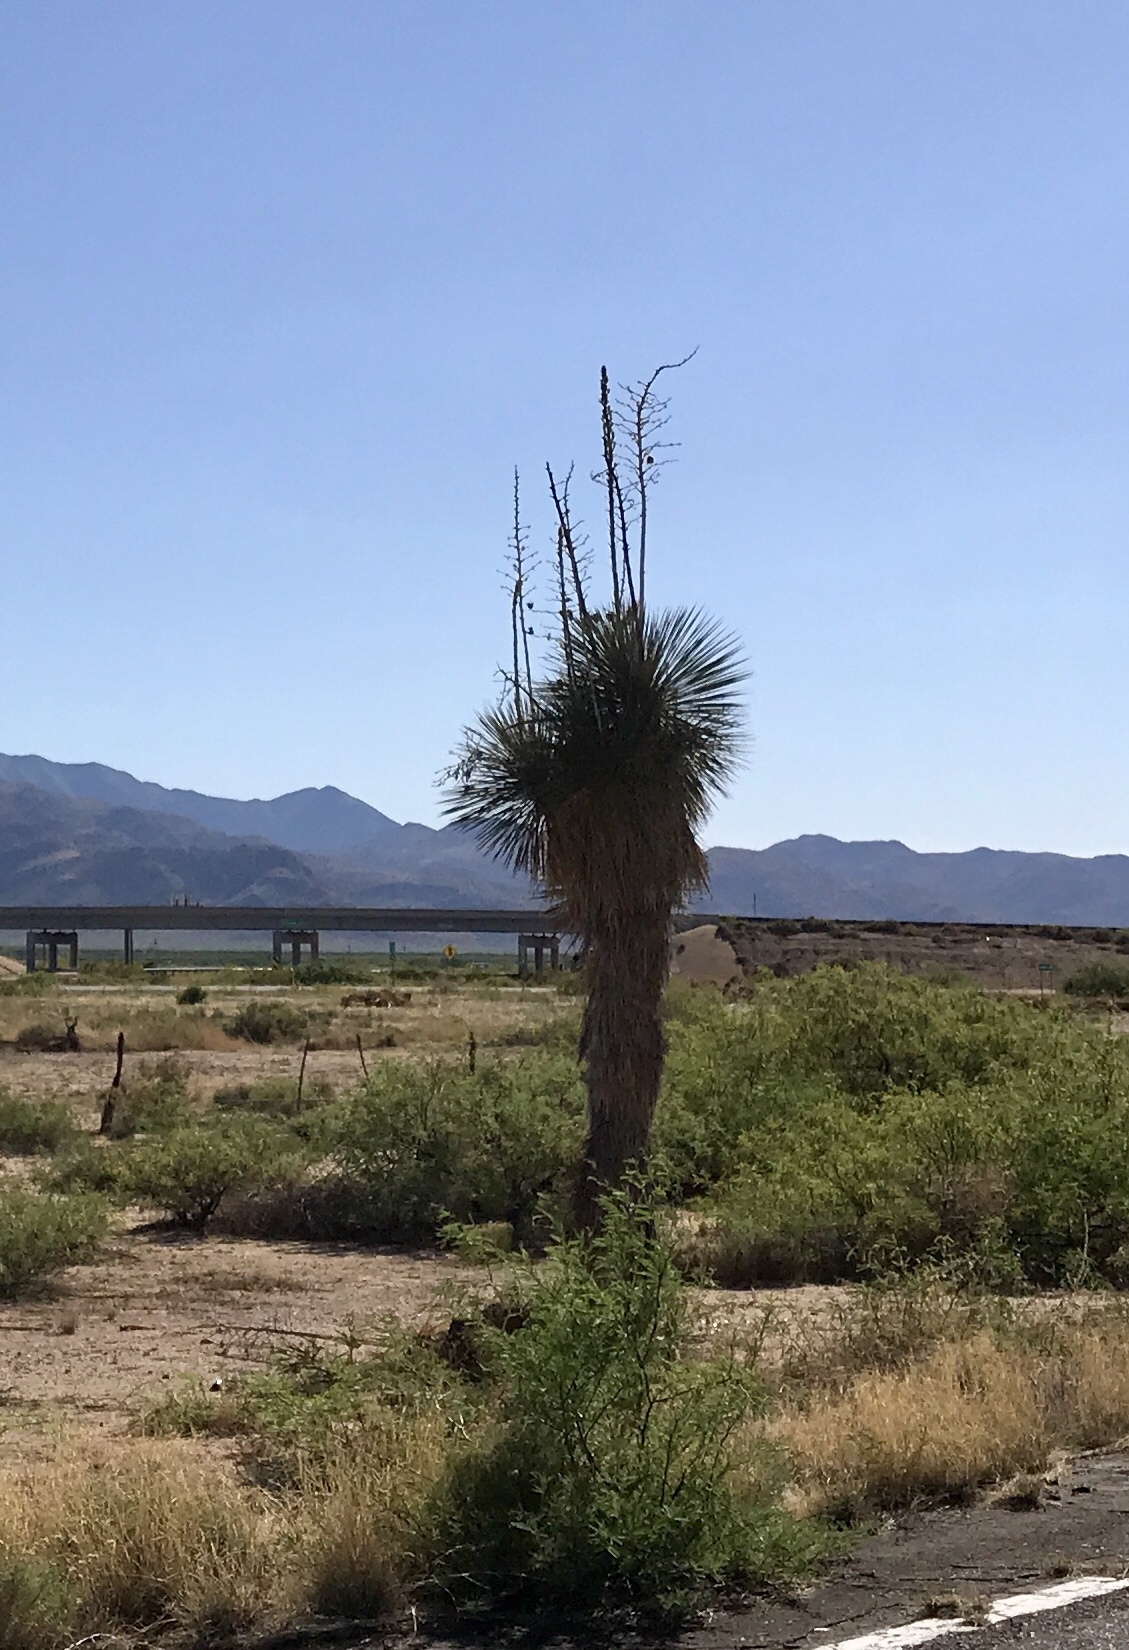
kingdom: Plantae
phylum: Tracheophyta
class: Liliopsida
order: Asparagales
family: Asparagaceae
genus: Yucca
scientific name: Yucca elata
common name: Palmella
